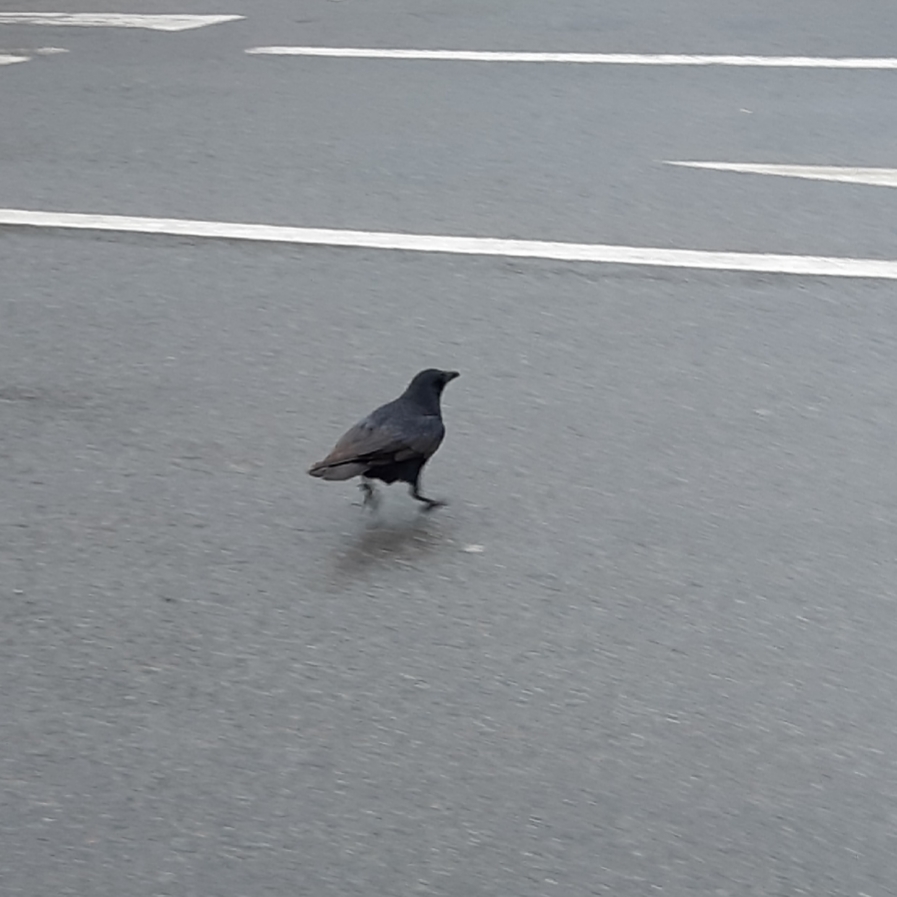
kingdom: Animalia
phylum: Chordata
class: Aves
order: Passeriformes
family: Corvidae
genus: Corvus
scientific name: Corvus corone
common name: Carrion crow
